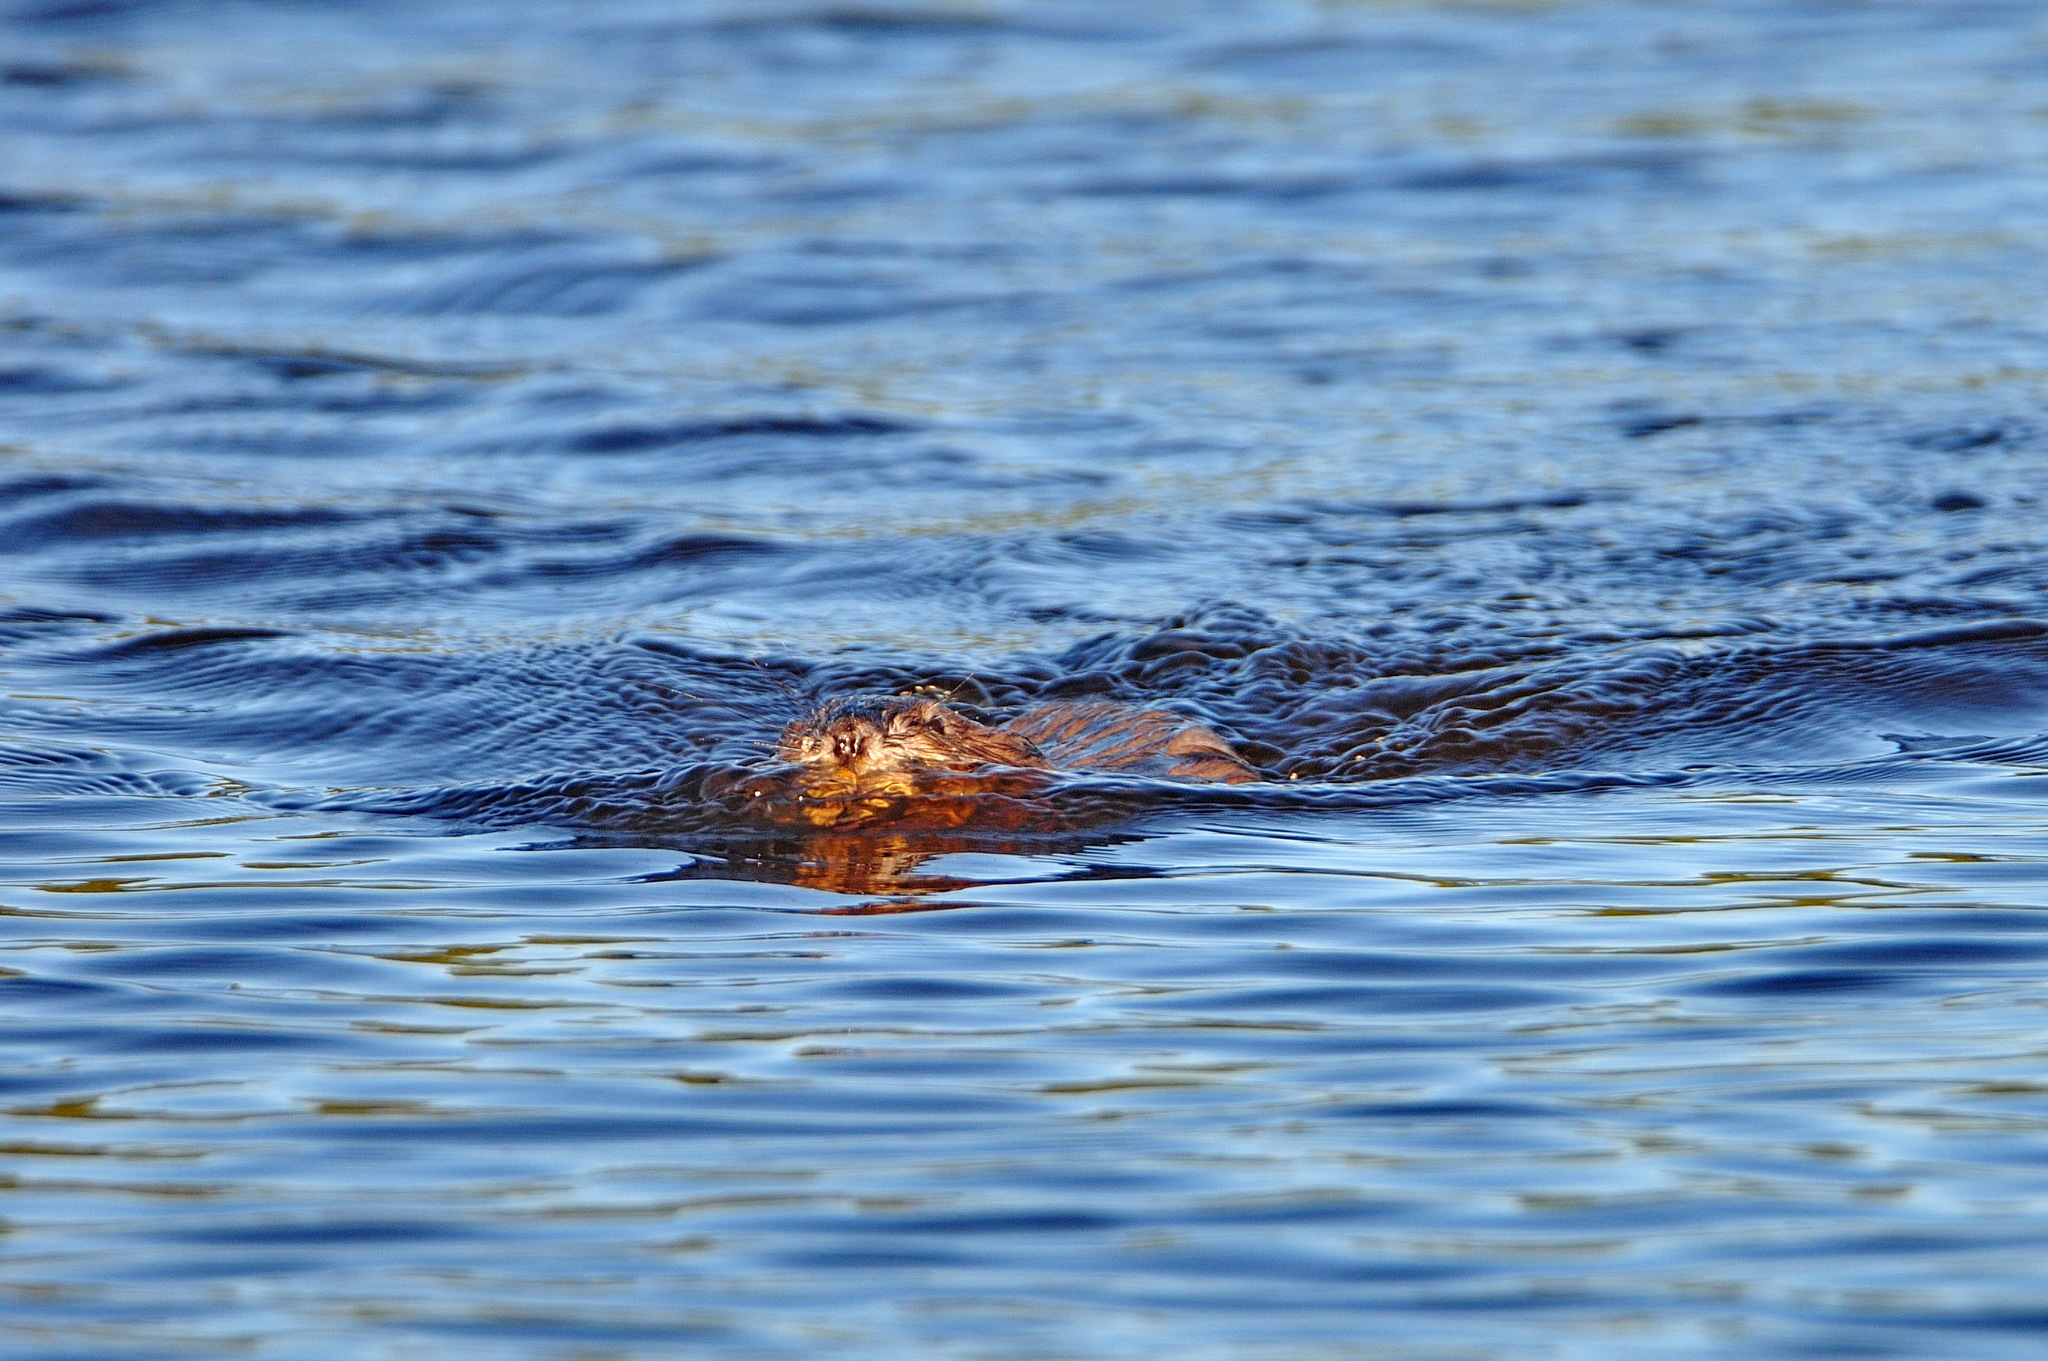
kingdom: Animalia
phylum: Chordata
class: Mammalia
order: Rodentia
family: Cricetidae
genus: Ondatra
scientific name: Ondatra zibethicus
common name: Muskrat
